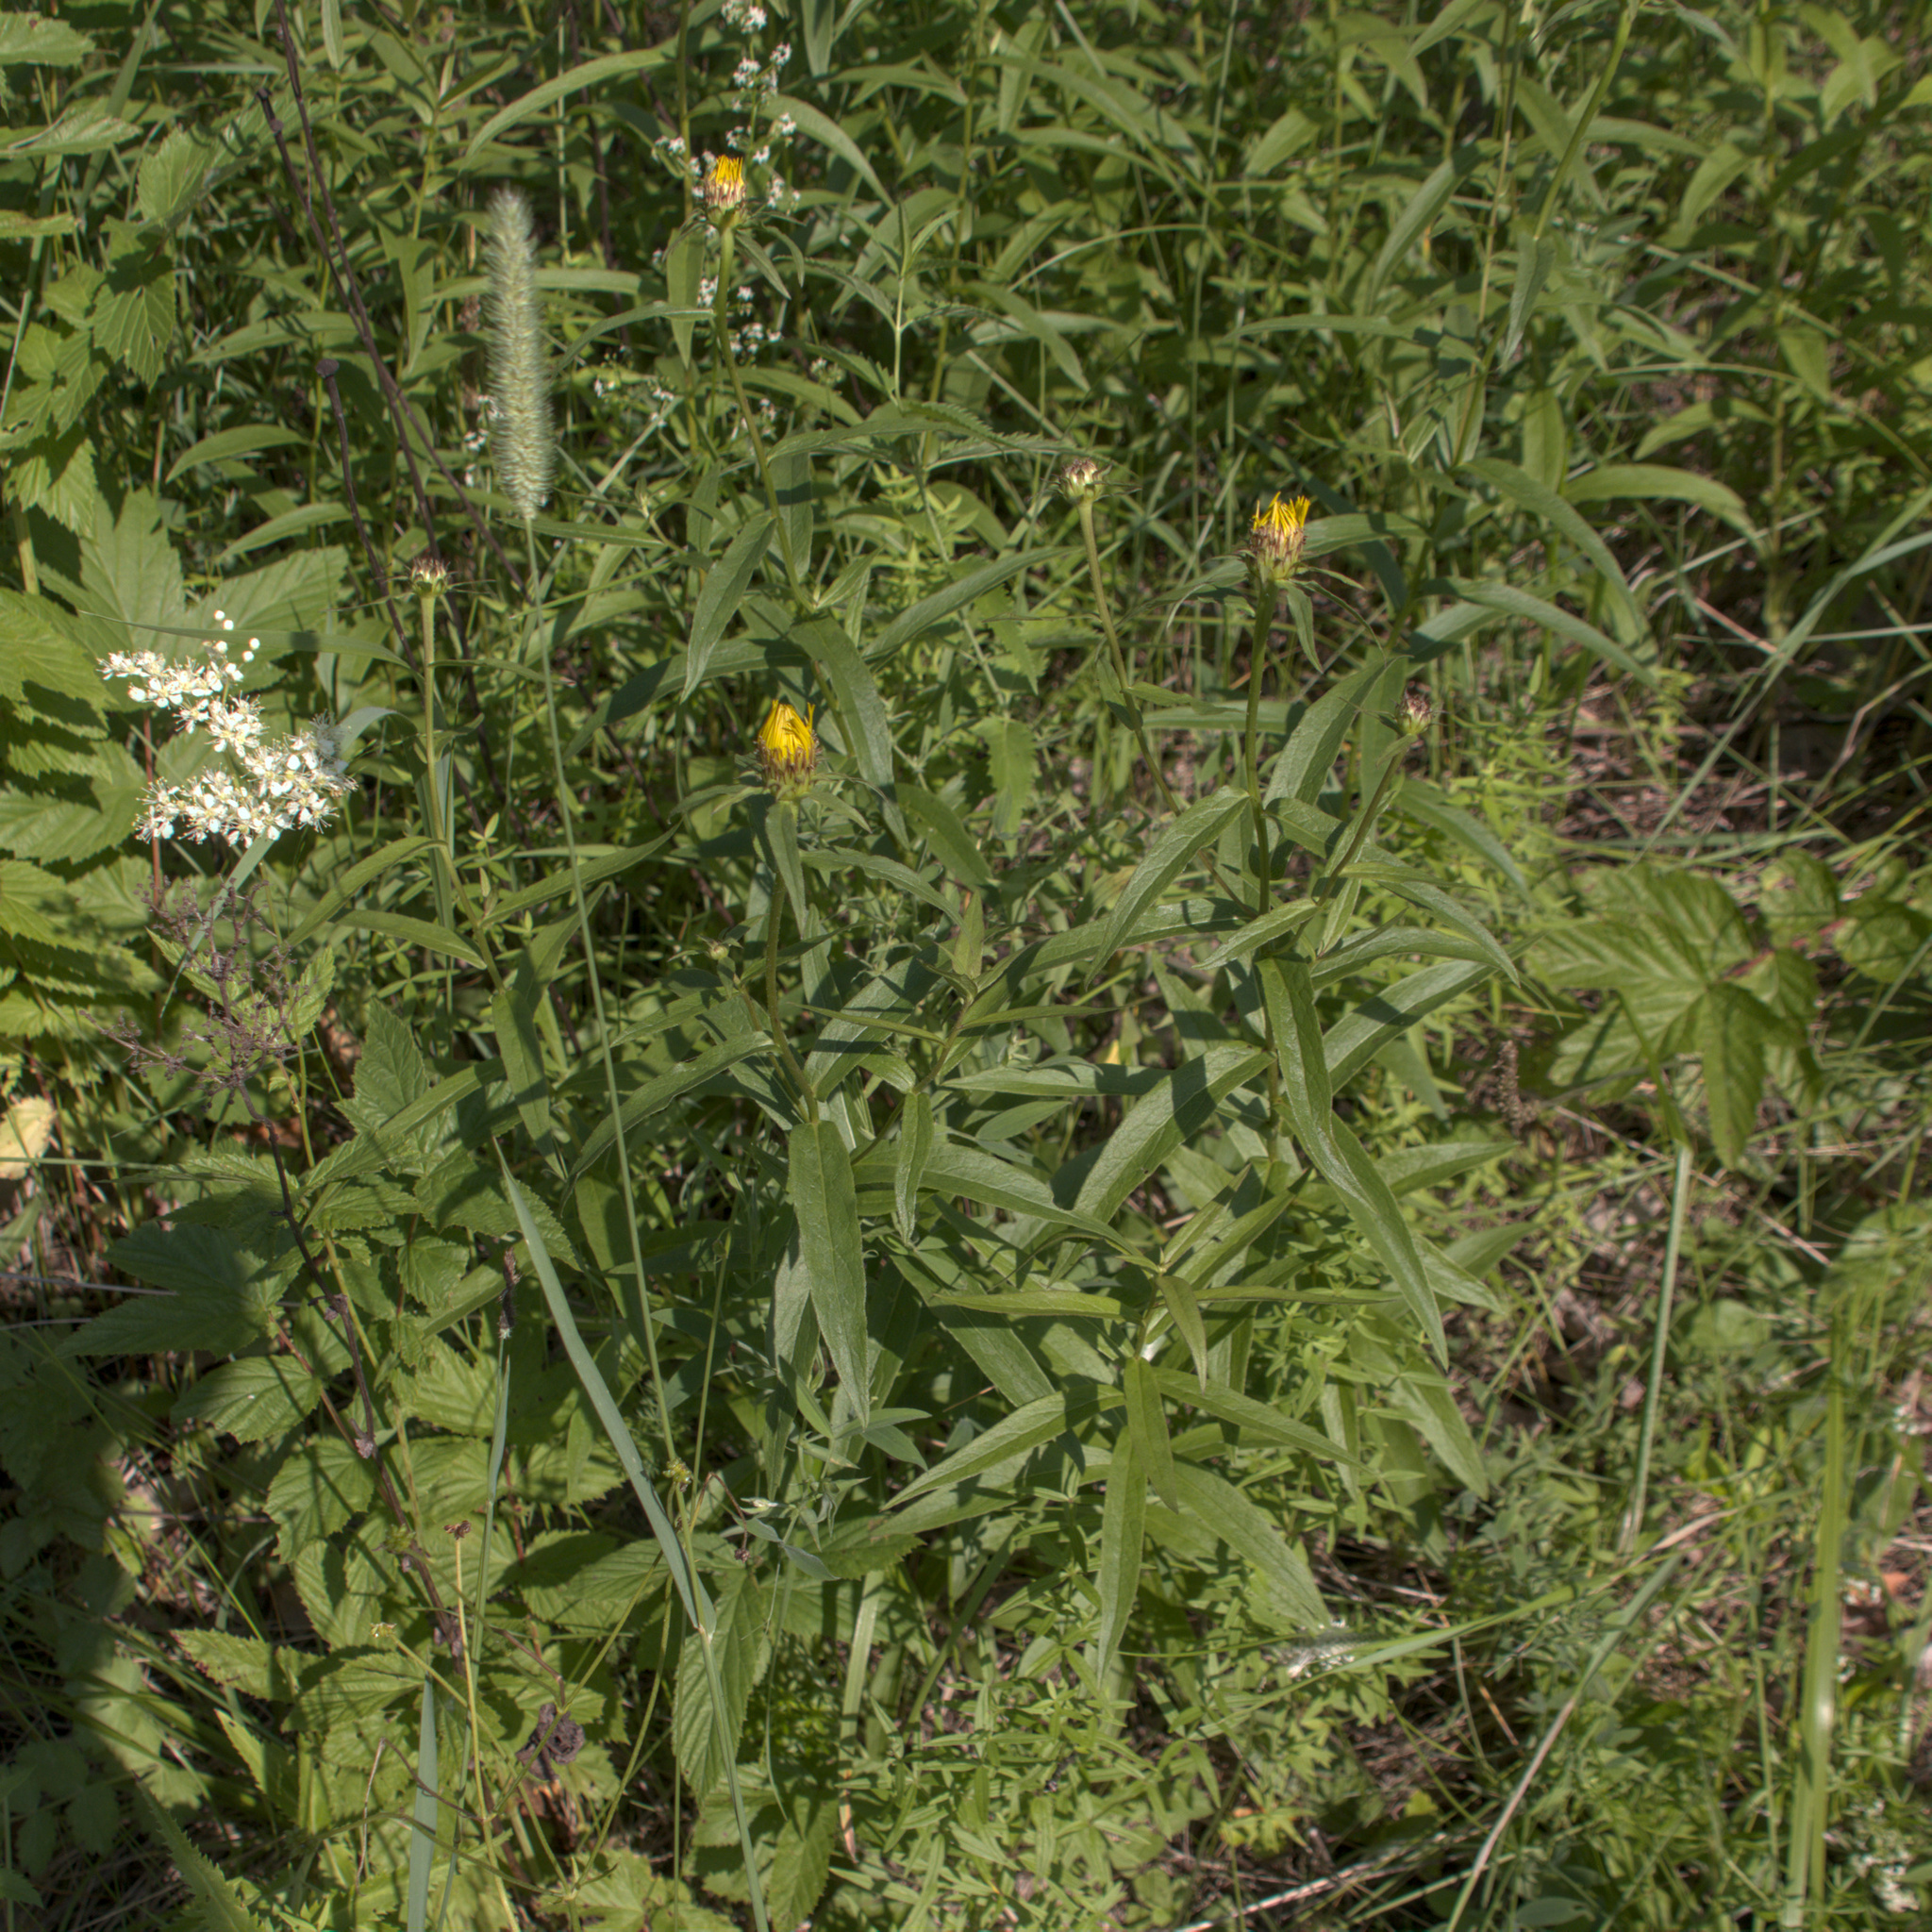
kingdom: Plantae
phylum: Tracheophyta
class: Magnoliopsida
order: Asterales
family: Asteraceae
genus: Pentanema
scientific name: Pentanema salicinum
